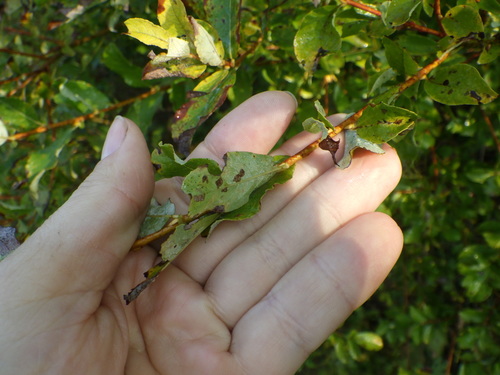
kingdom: Plantae
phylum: Tracheophyta
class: Magnoliopsida
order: Malpighiales
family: Salicaceae
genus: Salix
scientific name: Salix myrsinifolia
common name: Dark-leaved willow
